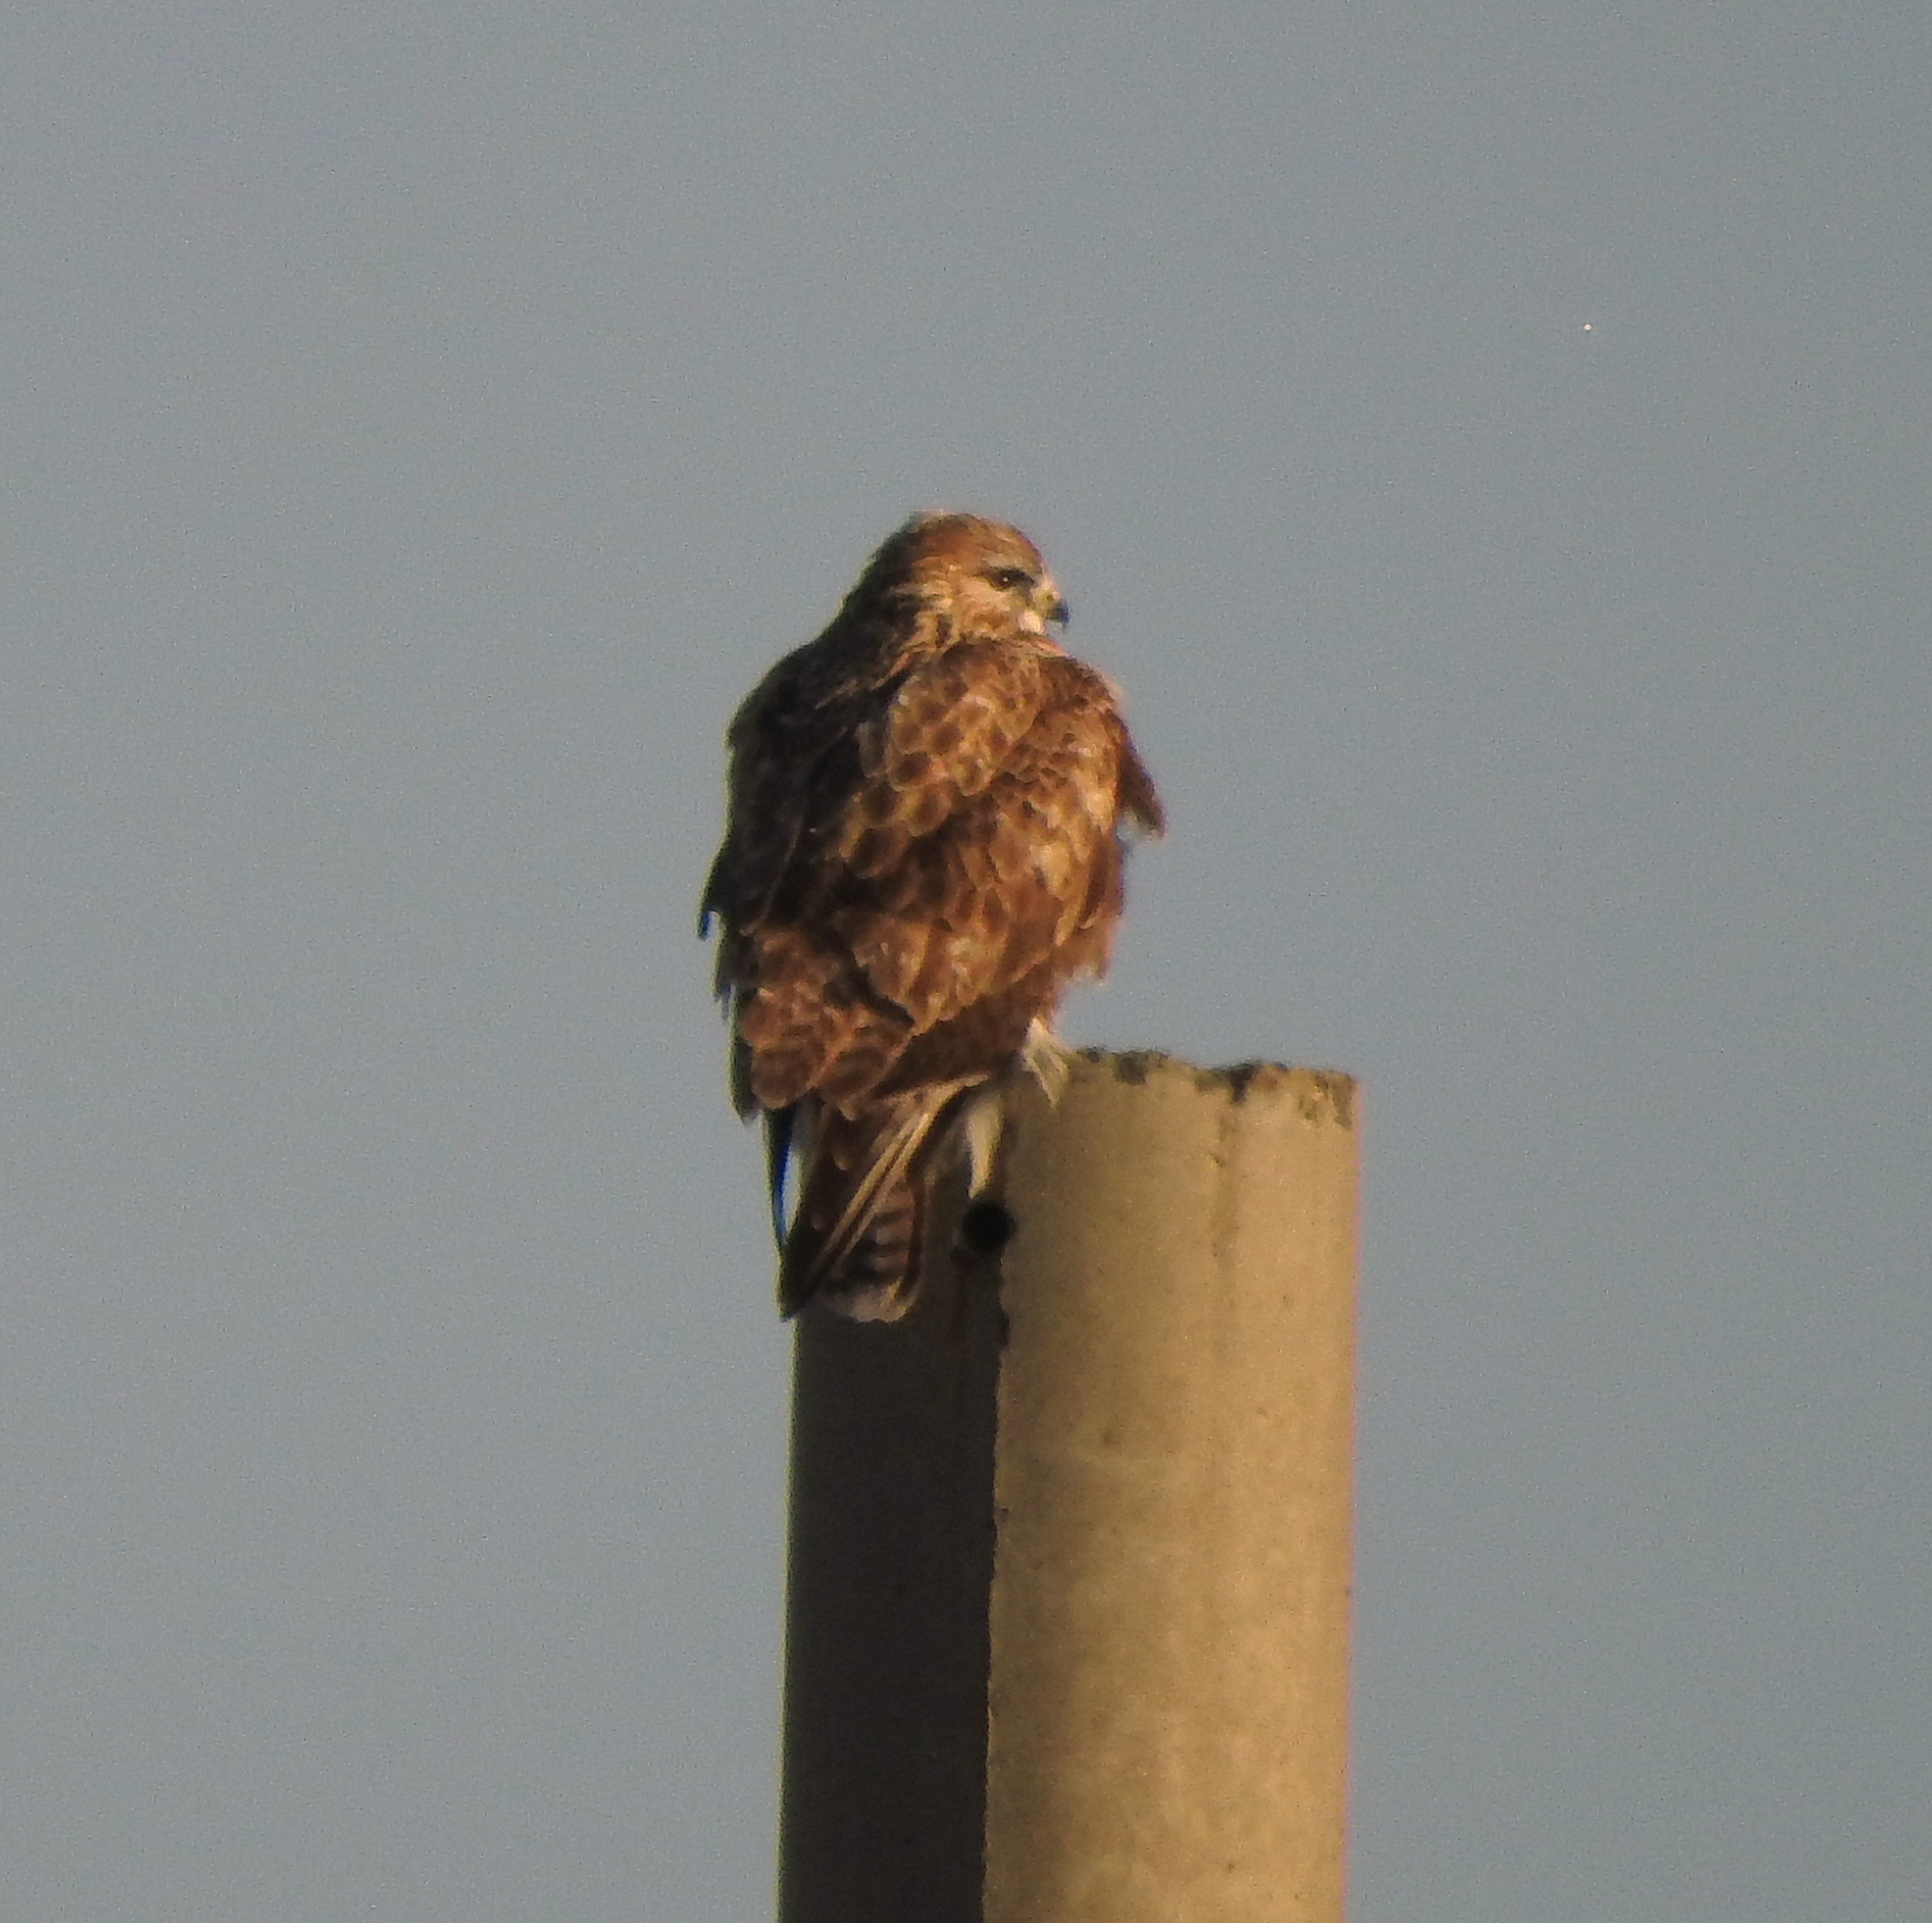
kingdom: Animalia
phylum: Chordata
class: Aves
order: Accipitriformes
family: Accipitridae
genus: Buteo
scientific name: Buteo hemilasius
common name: Upland buzzard
